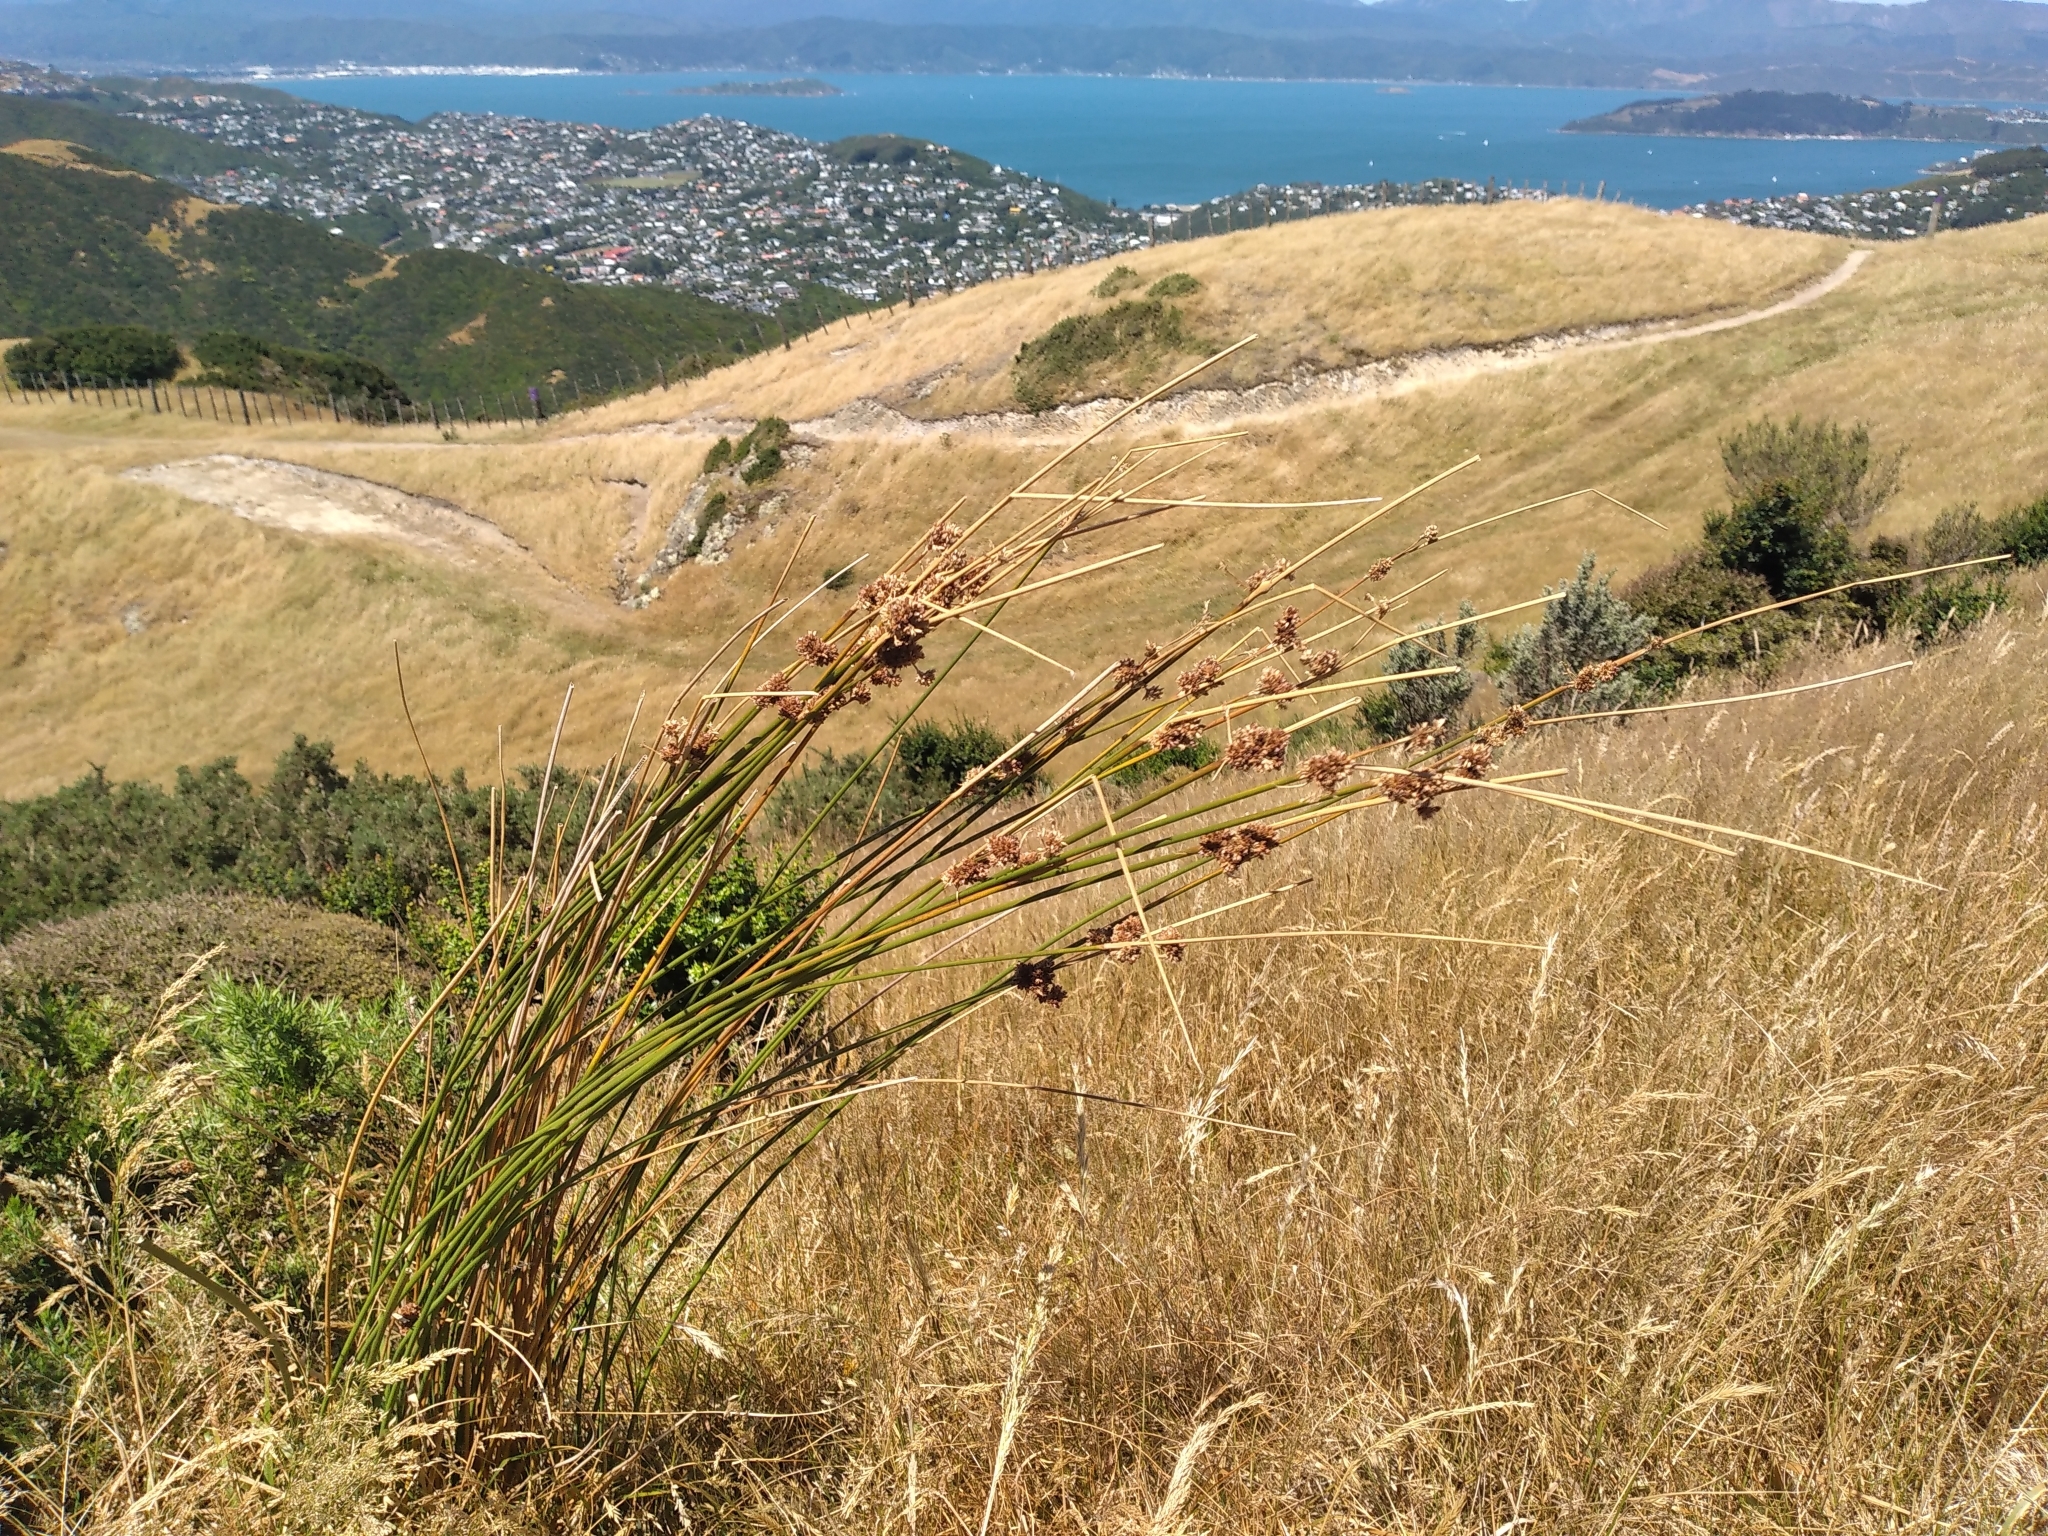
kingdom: Plantae
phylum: Tracheophyta
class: Liliopsida
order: Poales
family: Juncaceae
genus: Juncus
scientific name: Juncus australis
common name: Austral rush
